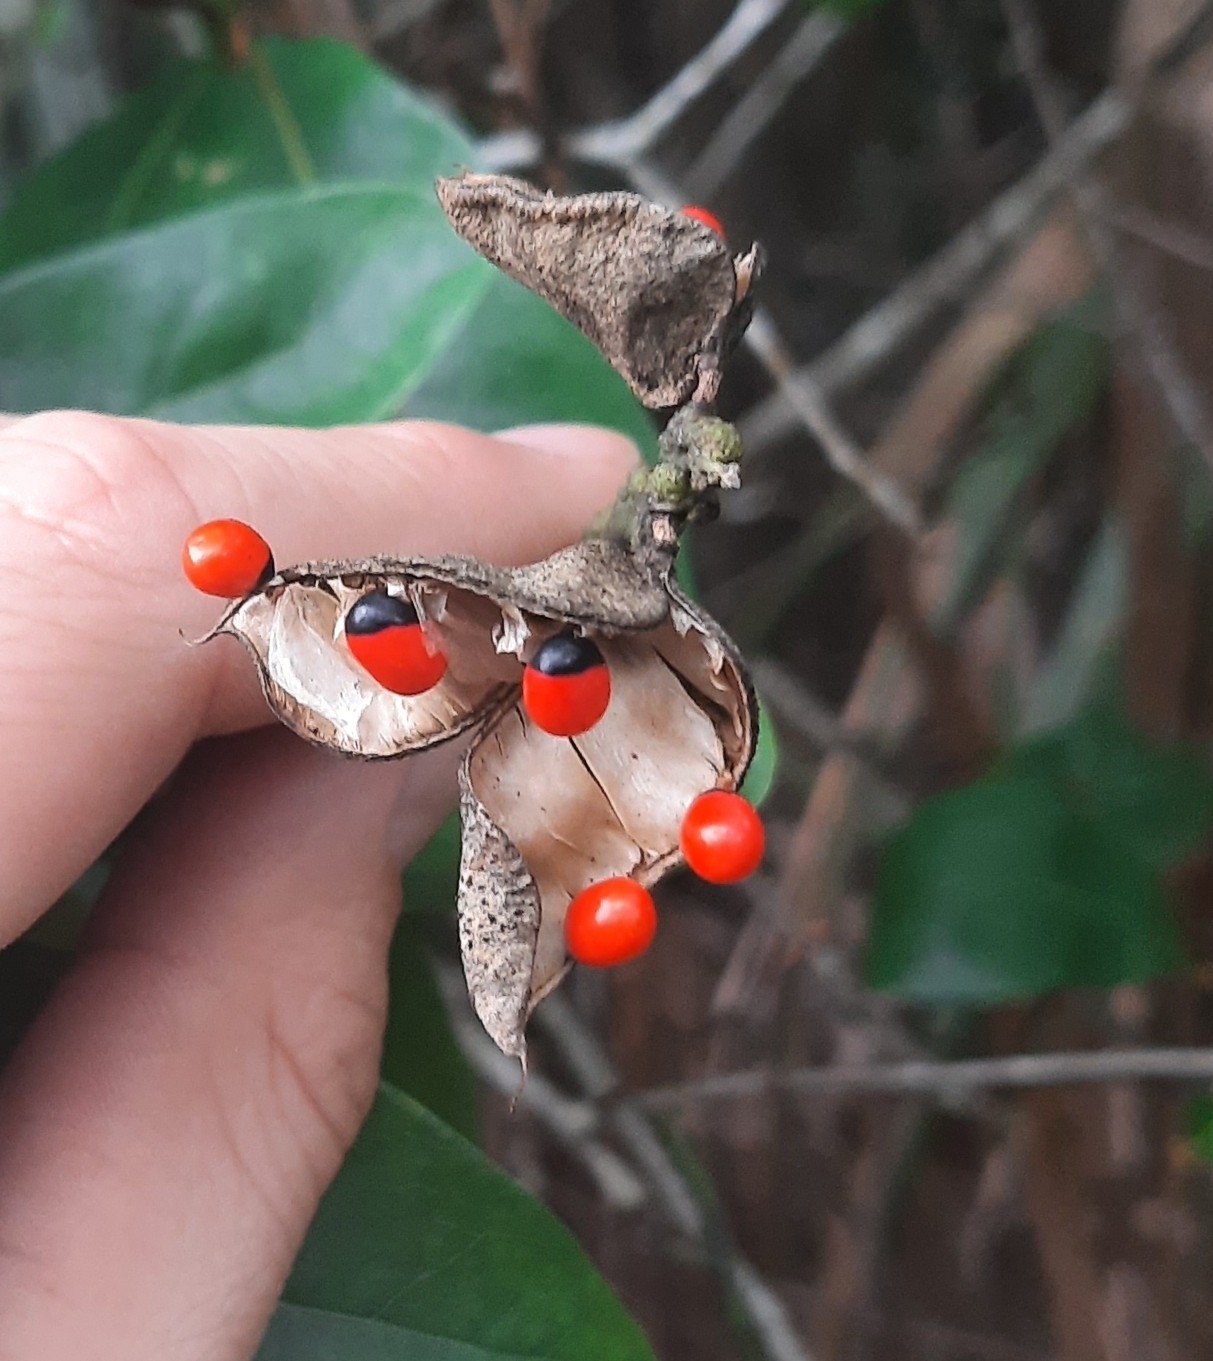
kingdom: Plantae
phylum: Tracheophyta
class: Magnoliopsida
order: Fabales
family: Fabaceae
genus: Abrus
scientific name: Abrus precatorius
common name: Rosarypea
